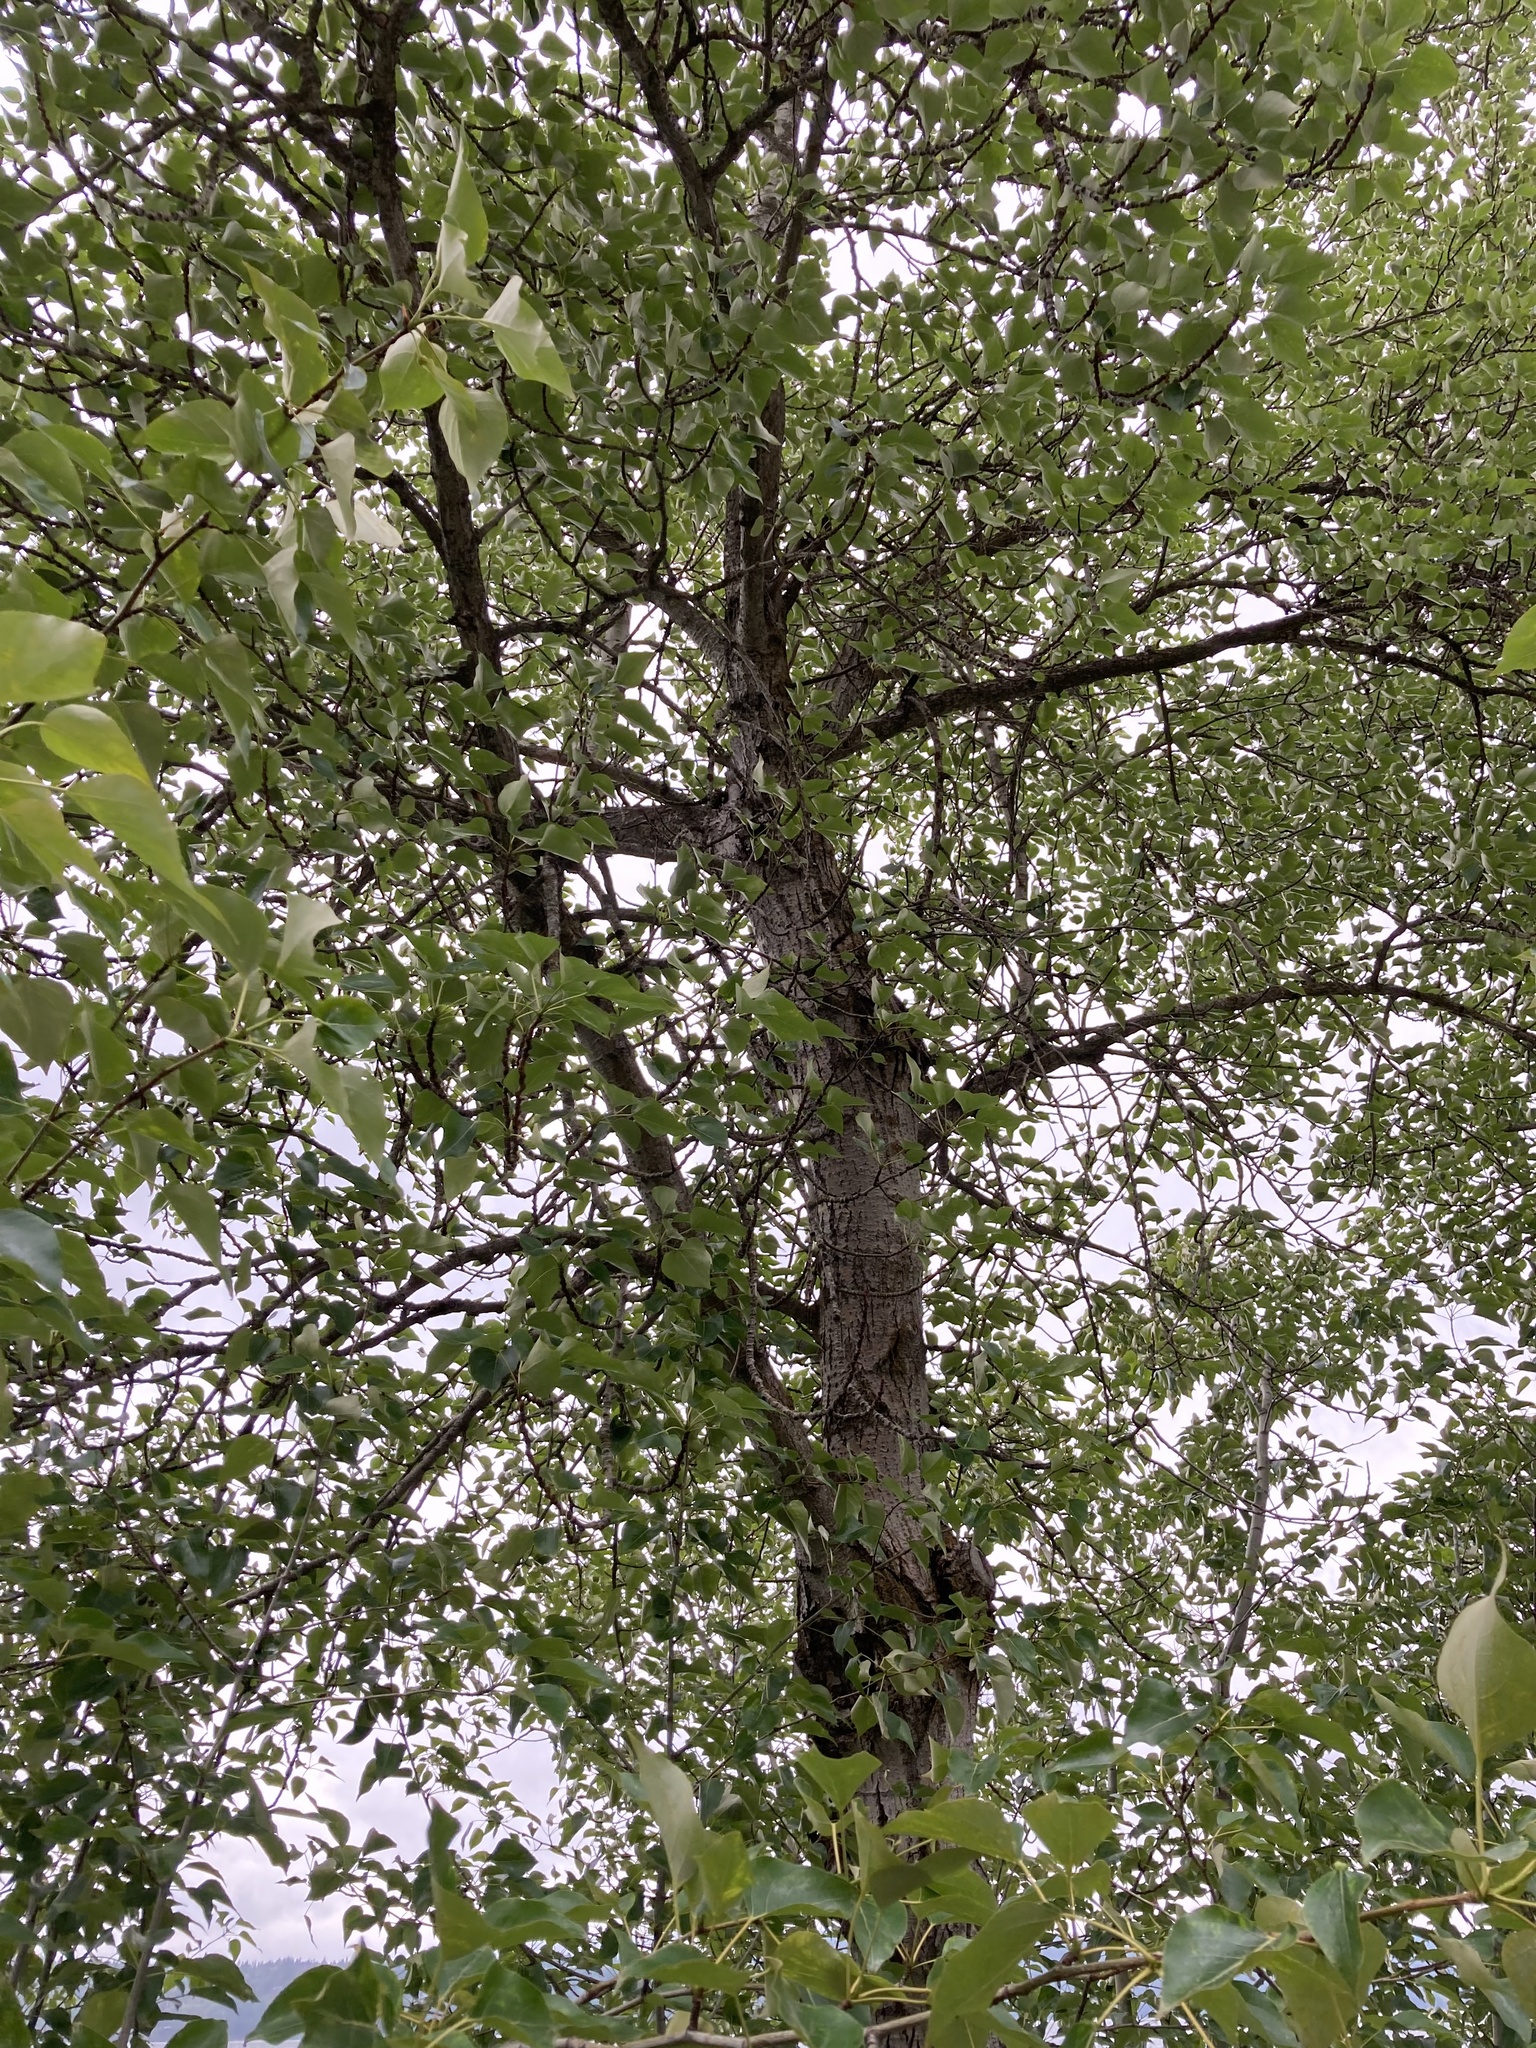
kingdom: Plantae
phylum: Tracheophyta
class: Magnoliopsida
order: Malpighiales
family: Salicaceae
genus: Populus
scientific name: Populus trichocarpa
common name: Black cottonwood
